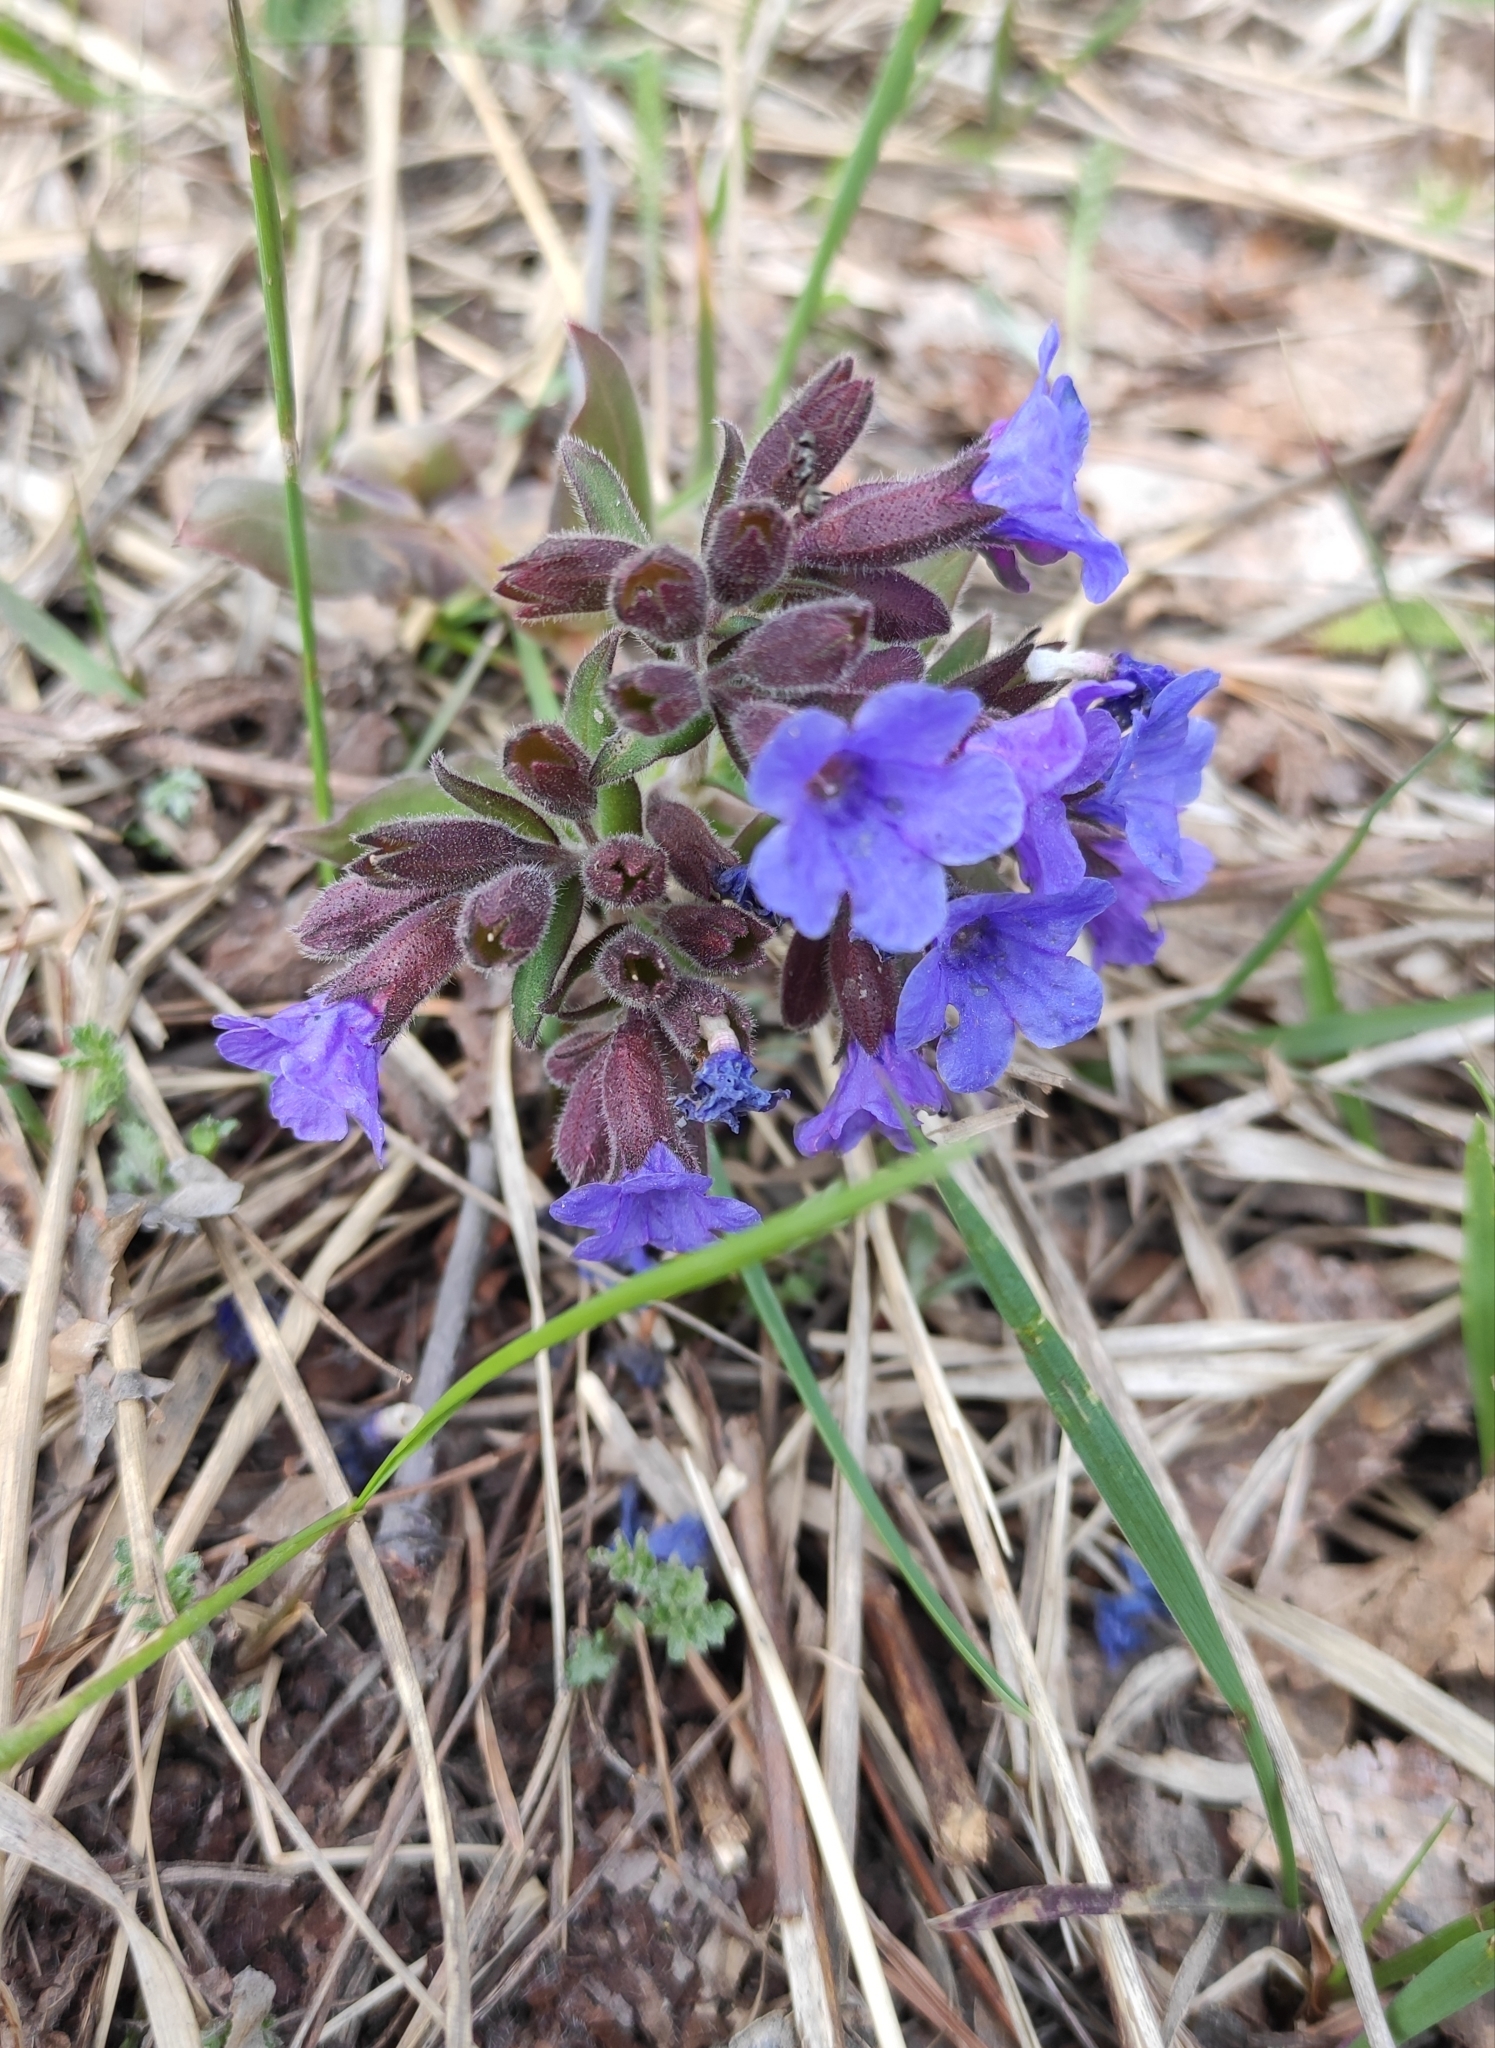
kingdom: Plantae
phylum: Tracheophyta
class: Magnoliopsida
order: Boraginales
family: Boraginaceae
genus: Pulmonaria
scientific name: Pulmonaria mollis
